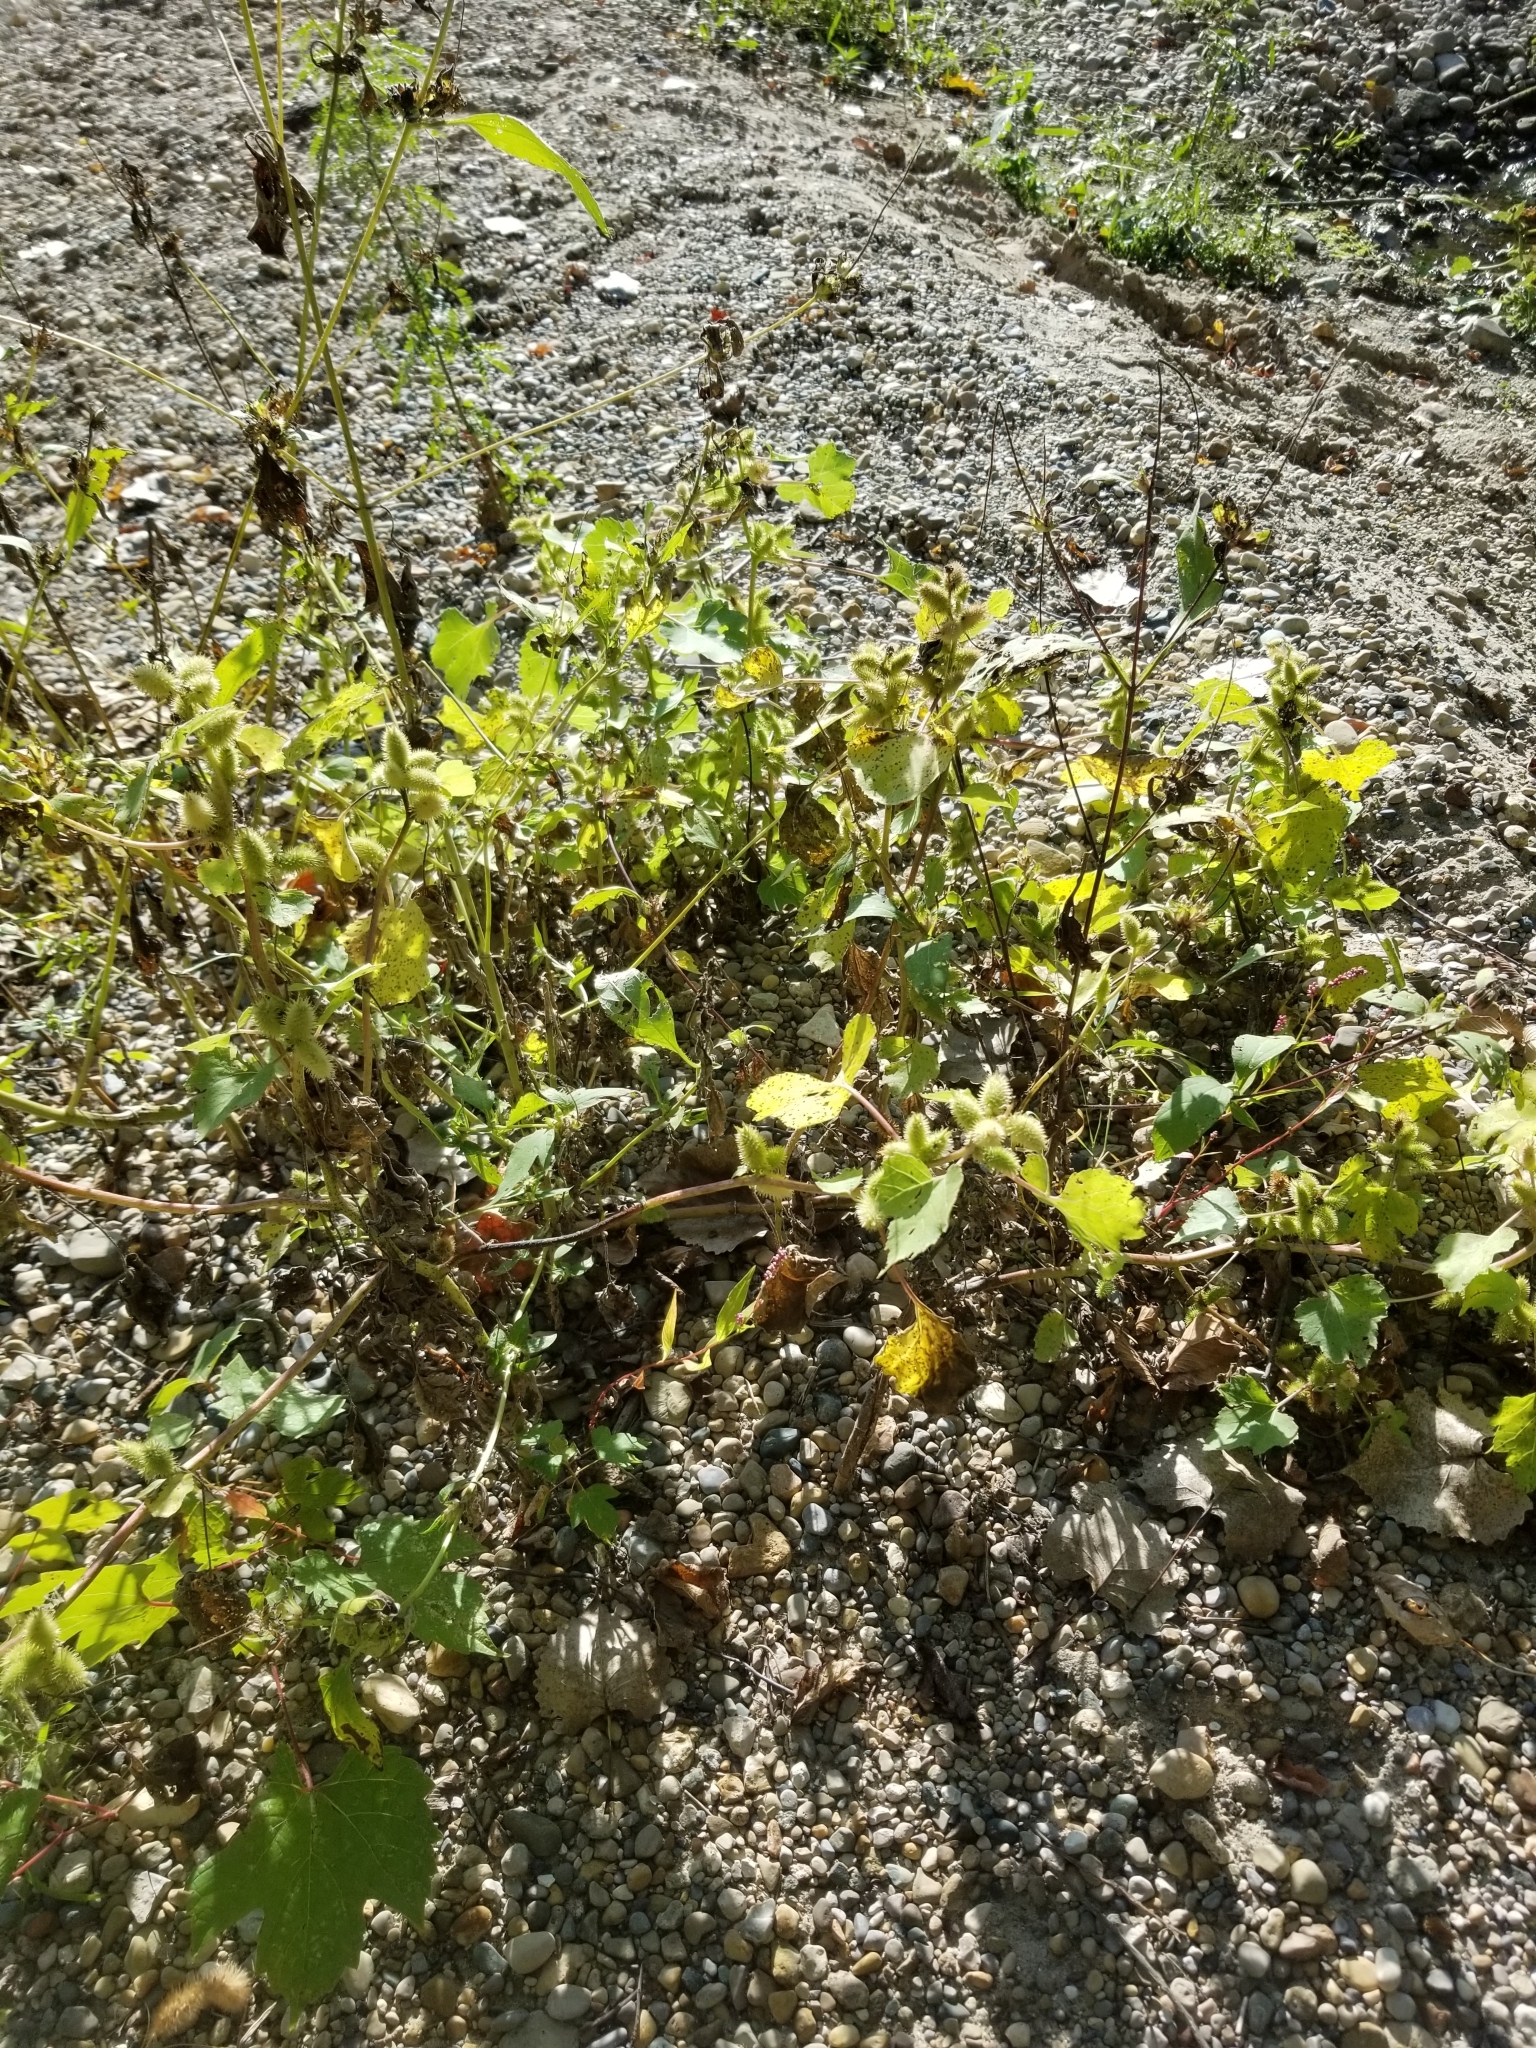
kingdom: Plantae
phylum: Tracheophyta
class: Magnoliopsida
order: Asterales
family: Asteraceae
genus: Xanthium
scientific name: Xanthium strumarium
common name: Rough cocklebur
